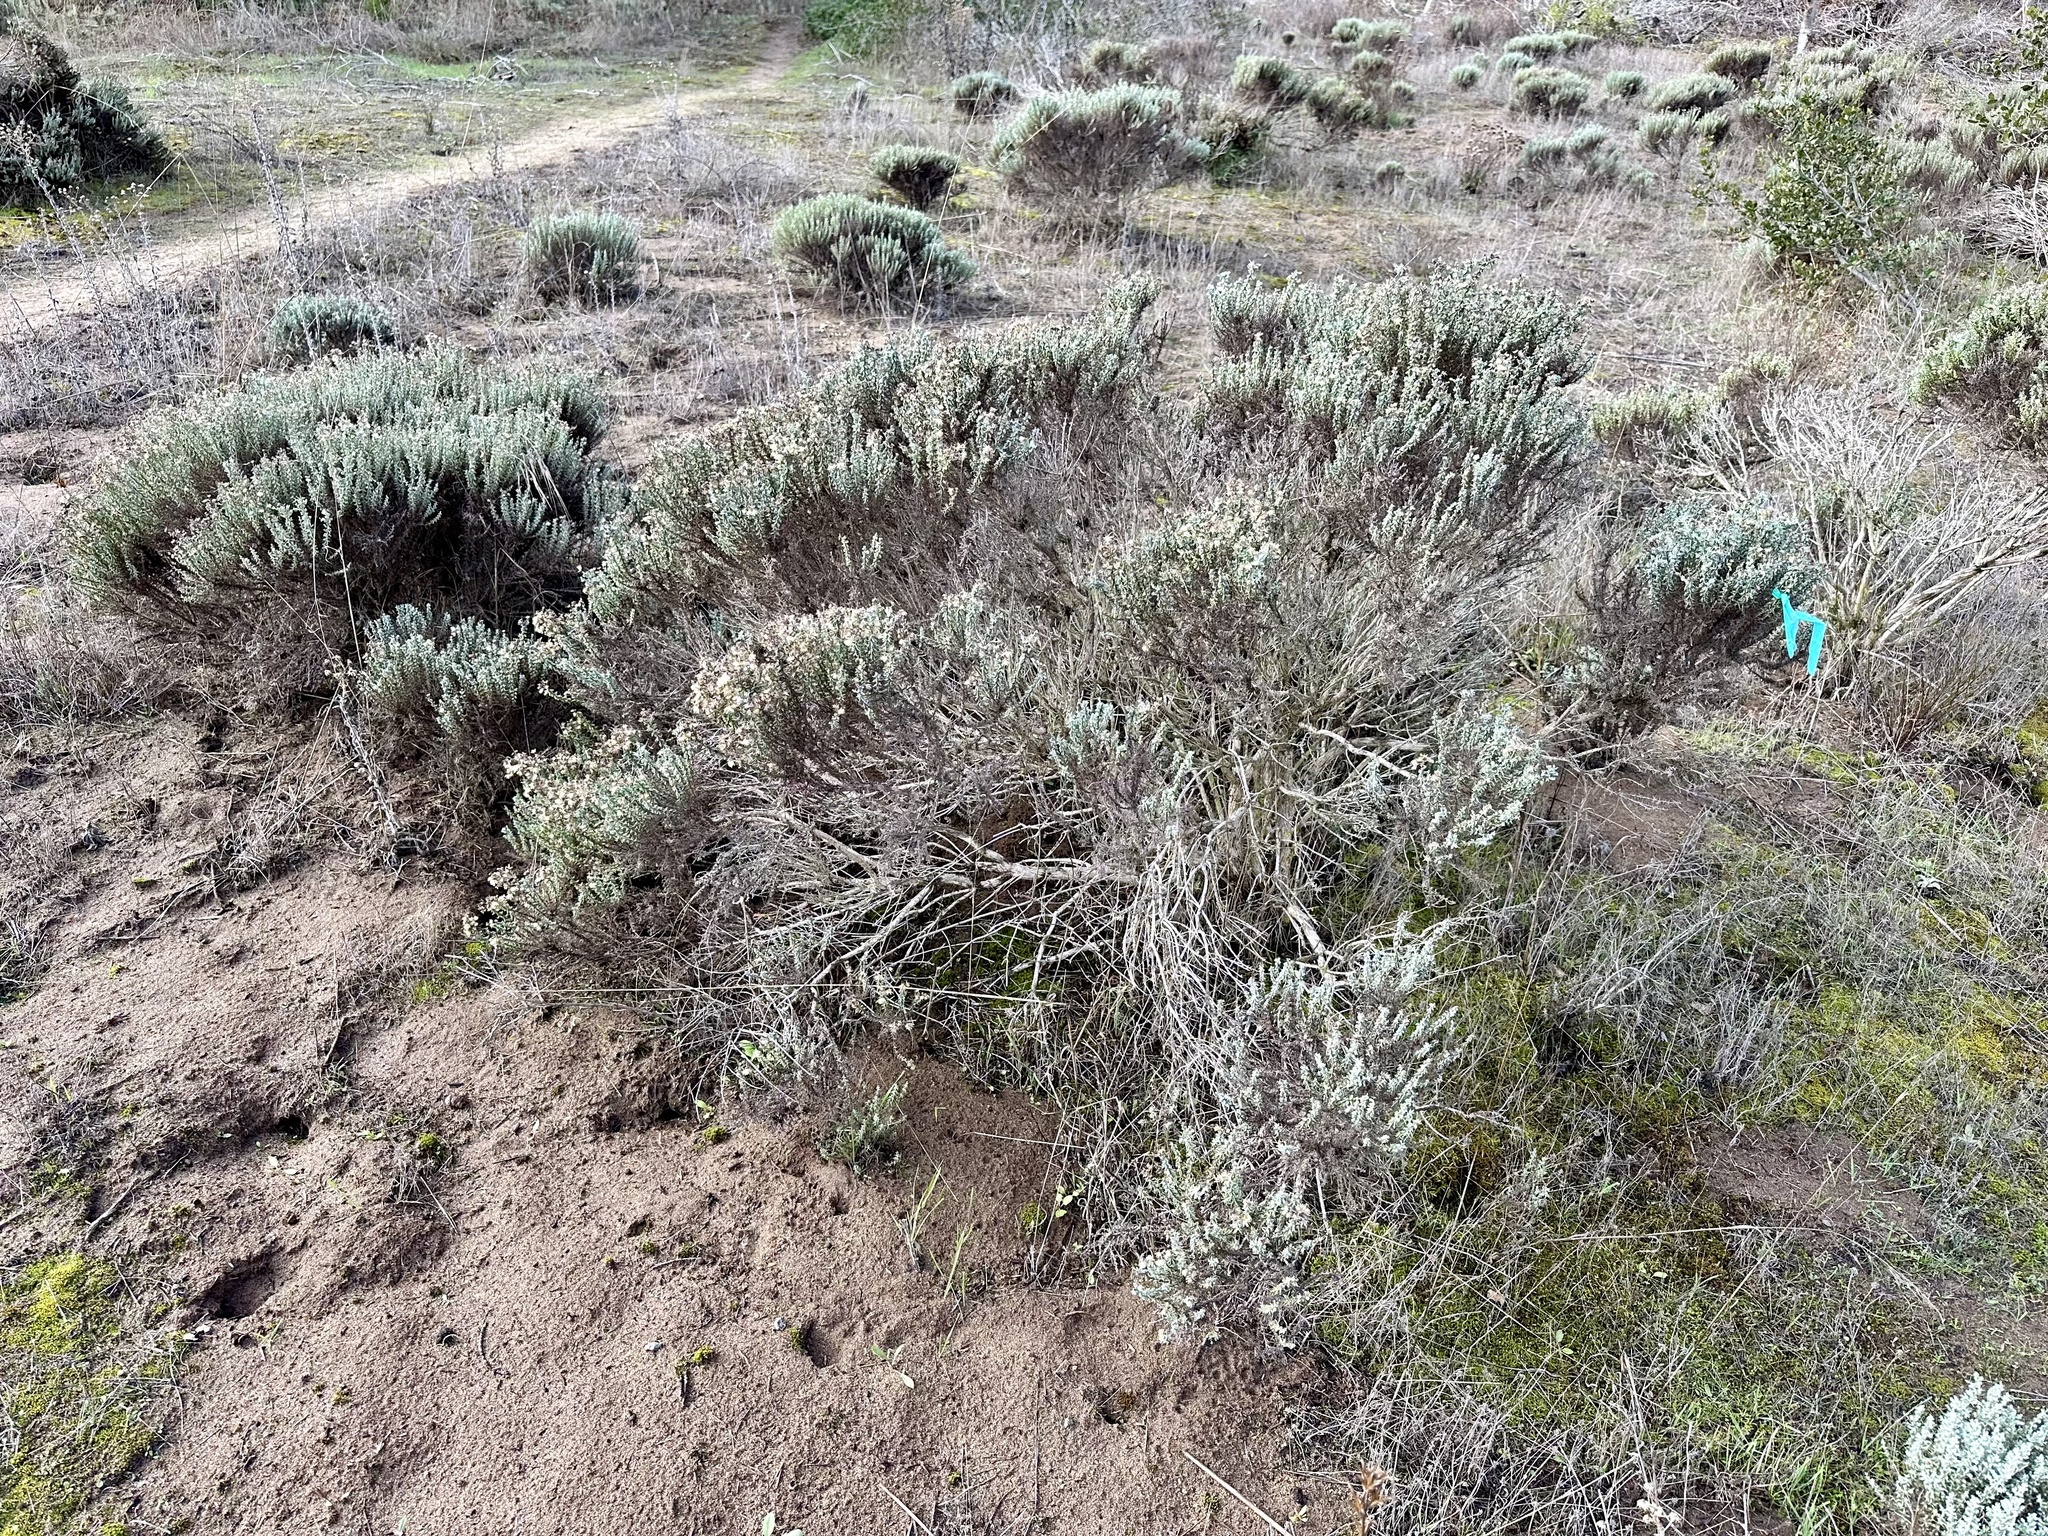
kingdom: Plantae
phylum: Tracheophyta
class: Magnoliopsida
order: Asterales
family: Asteraceae
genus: Ericameria
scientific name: Ericameria ericoides
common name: California goldenbush
